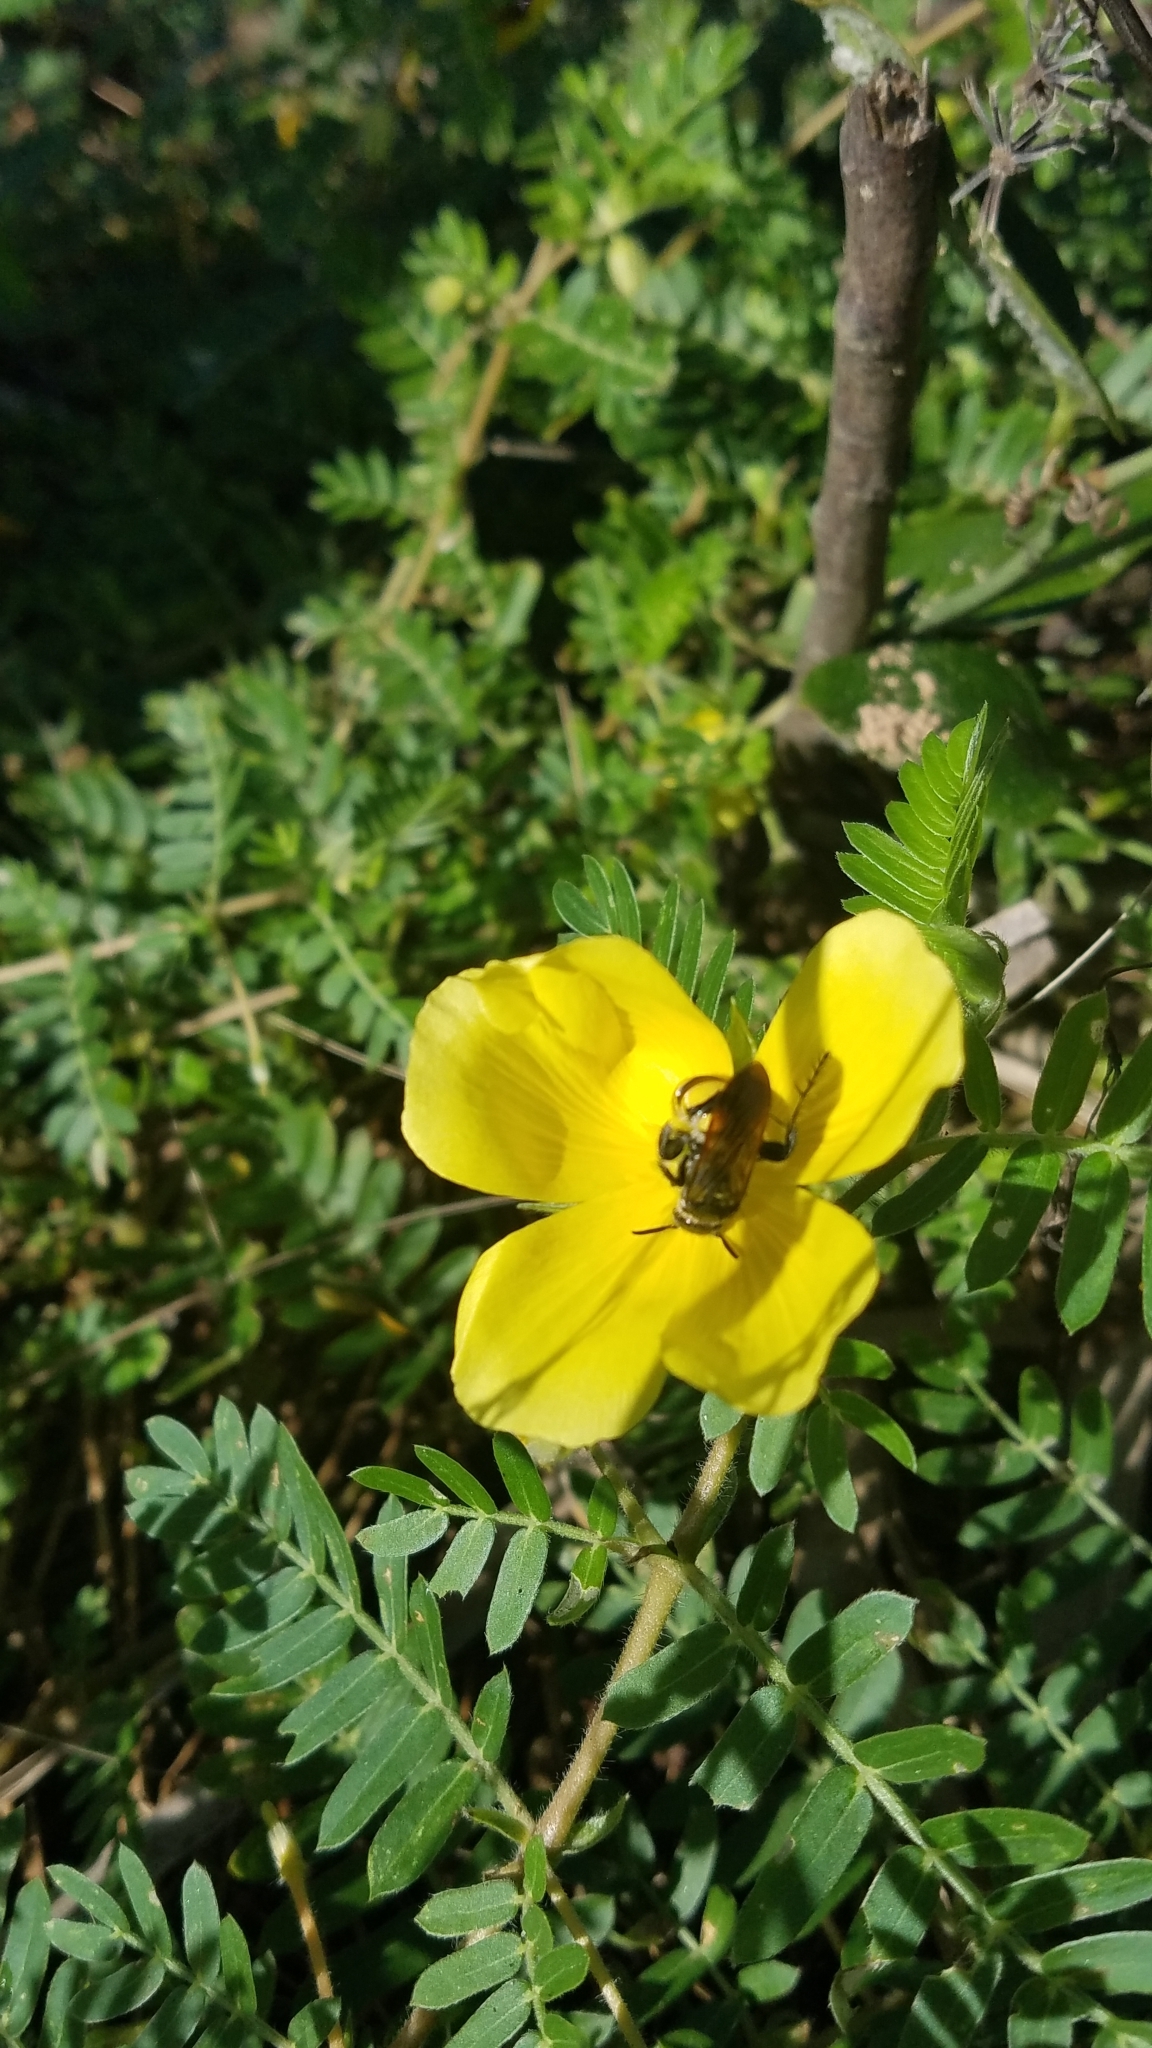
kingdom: Plantae
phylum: Tracheophyta
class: Magnoliopsida
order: Fabales
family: Fabaceae
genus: Chamaecrista
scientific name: Chamaecrista fasciculata
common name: Golden cassia
